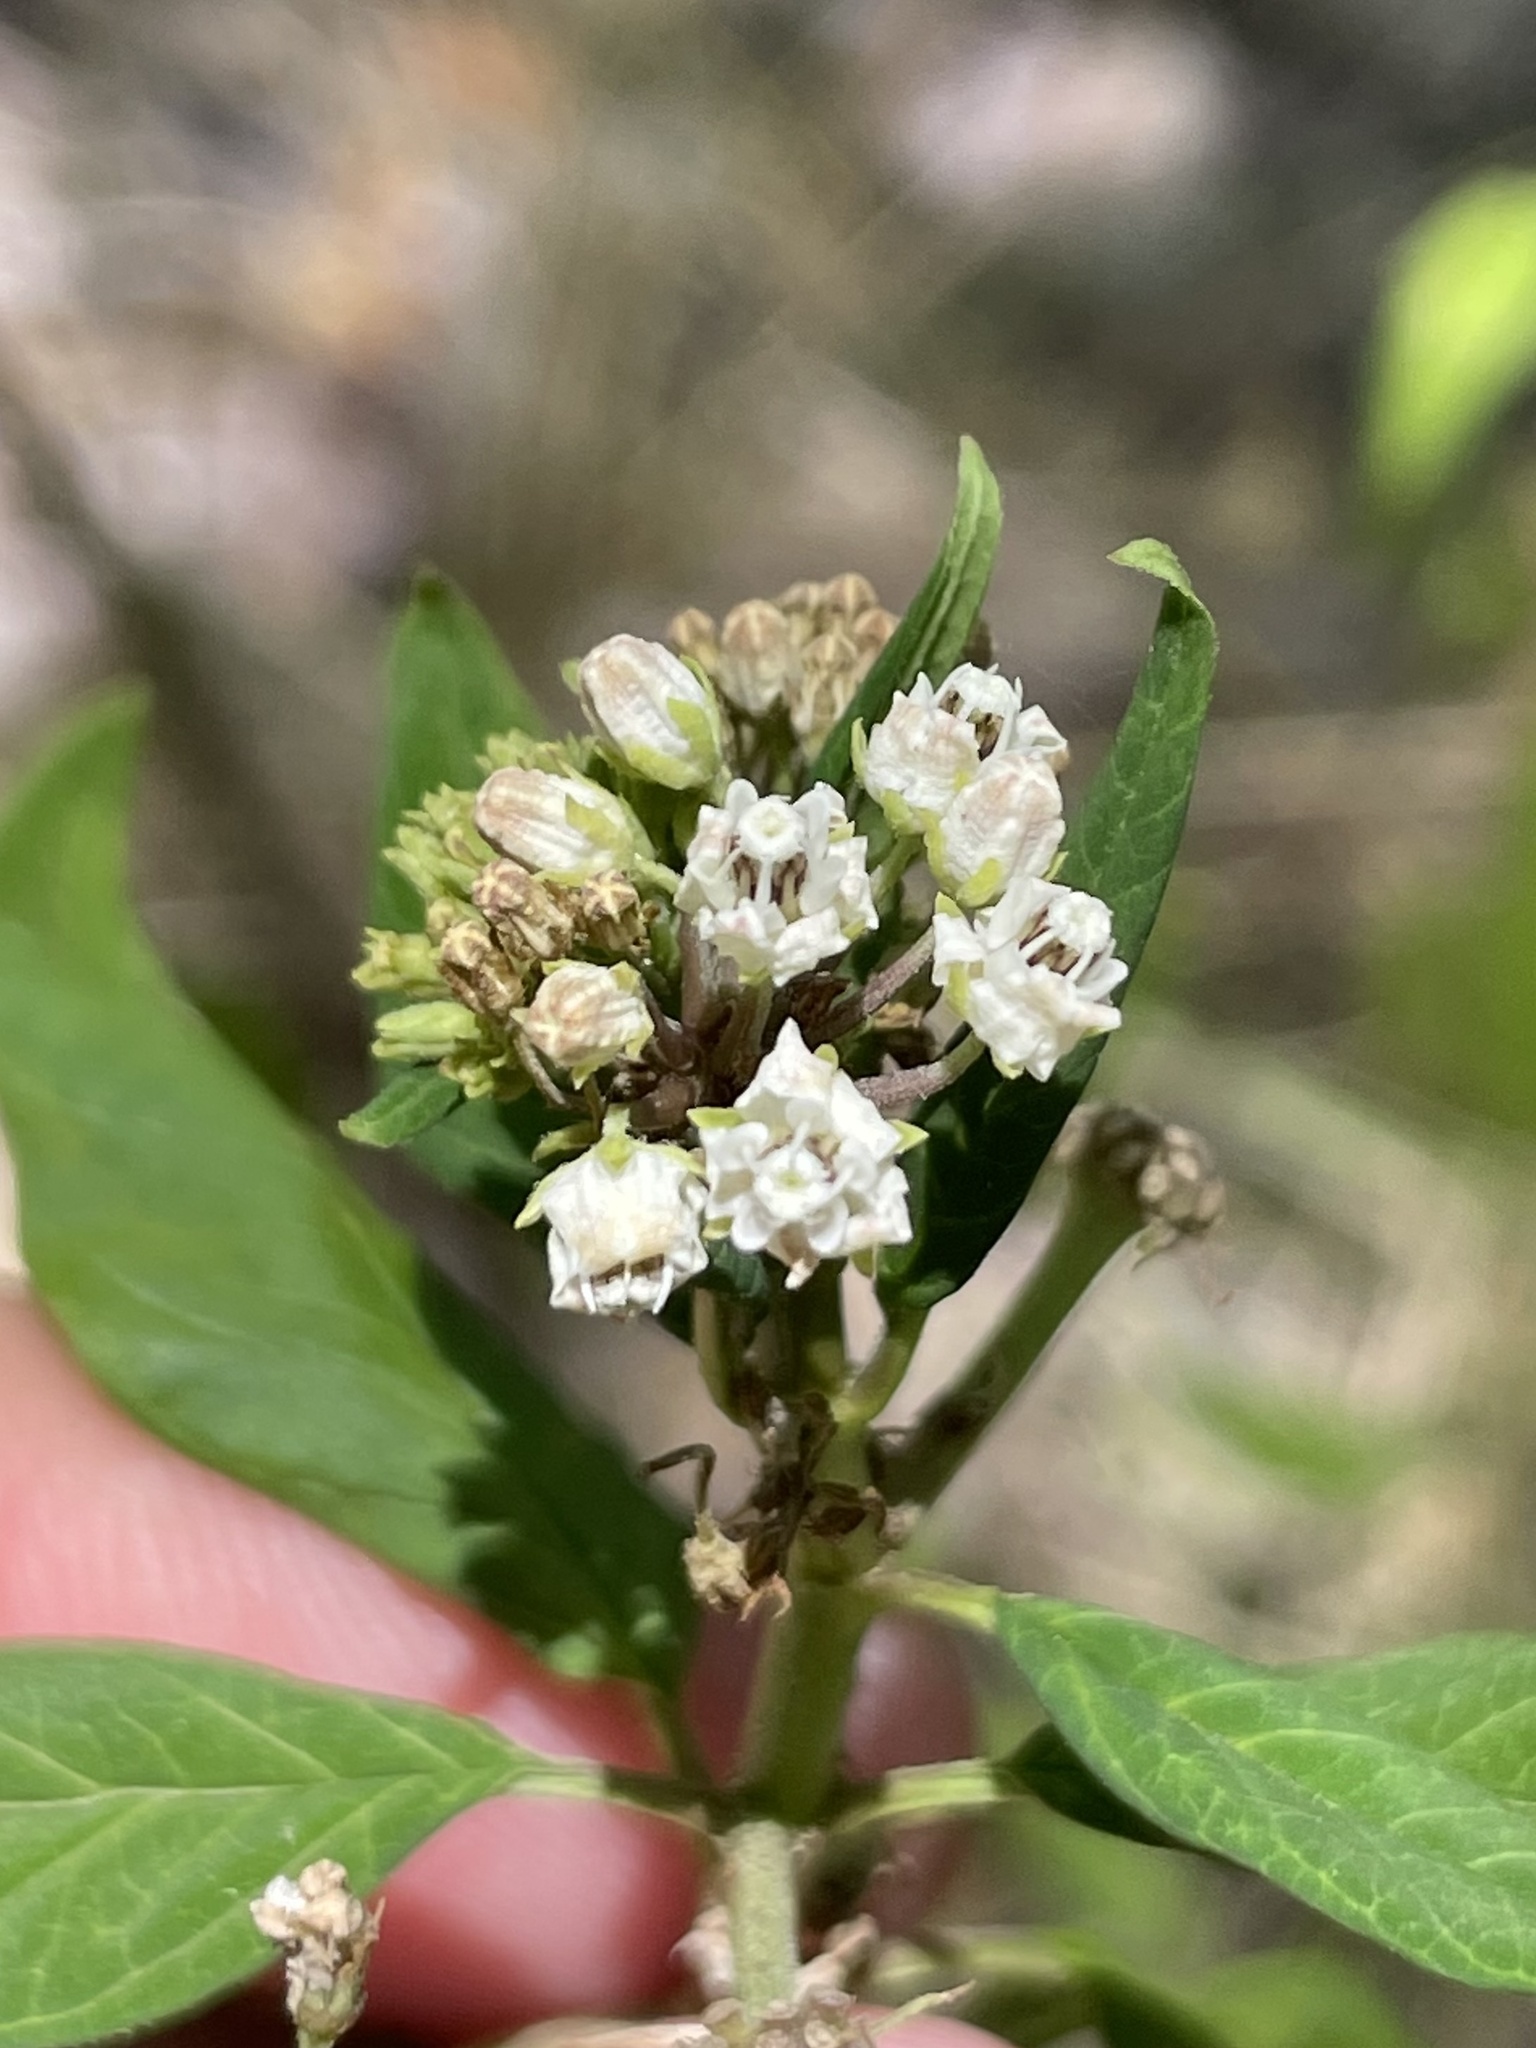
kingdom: Plantae
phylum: Tracheophyta
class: Magnoliopsida
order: Gentianales
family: Apocynaceae
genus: Asclepias
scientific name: Asclepias texana
